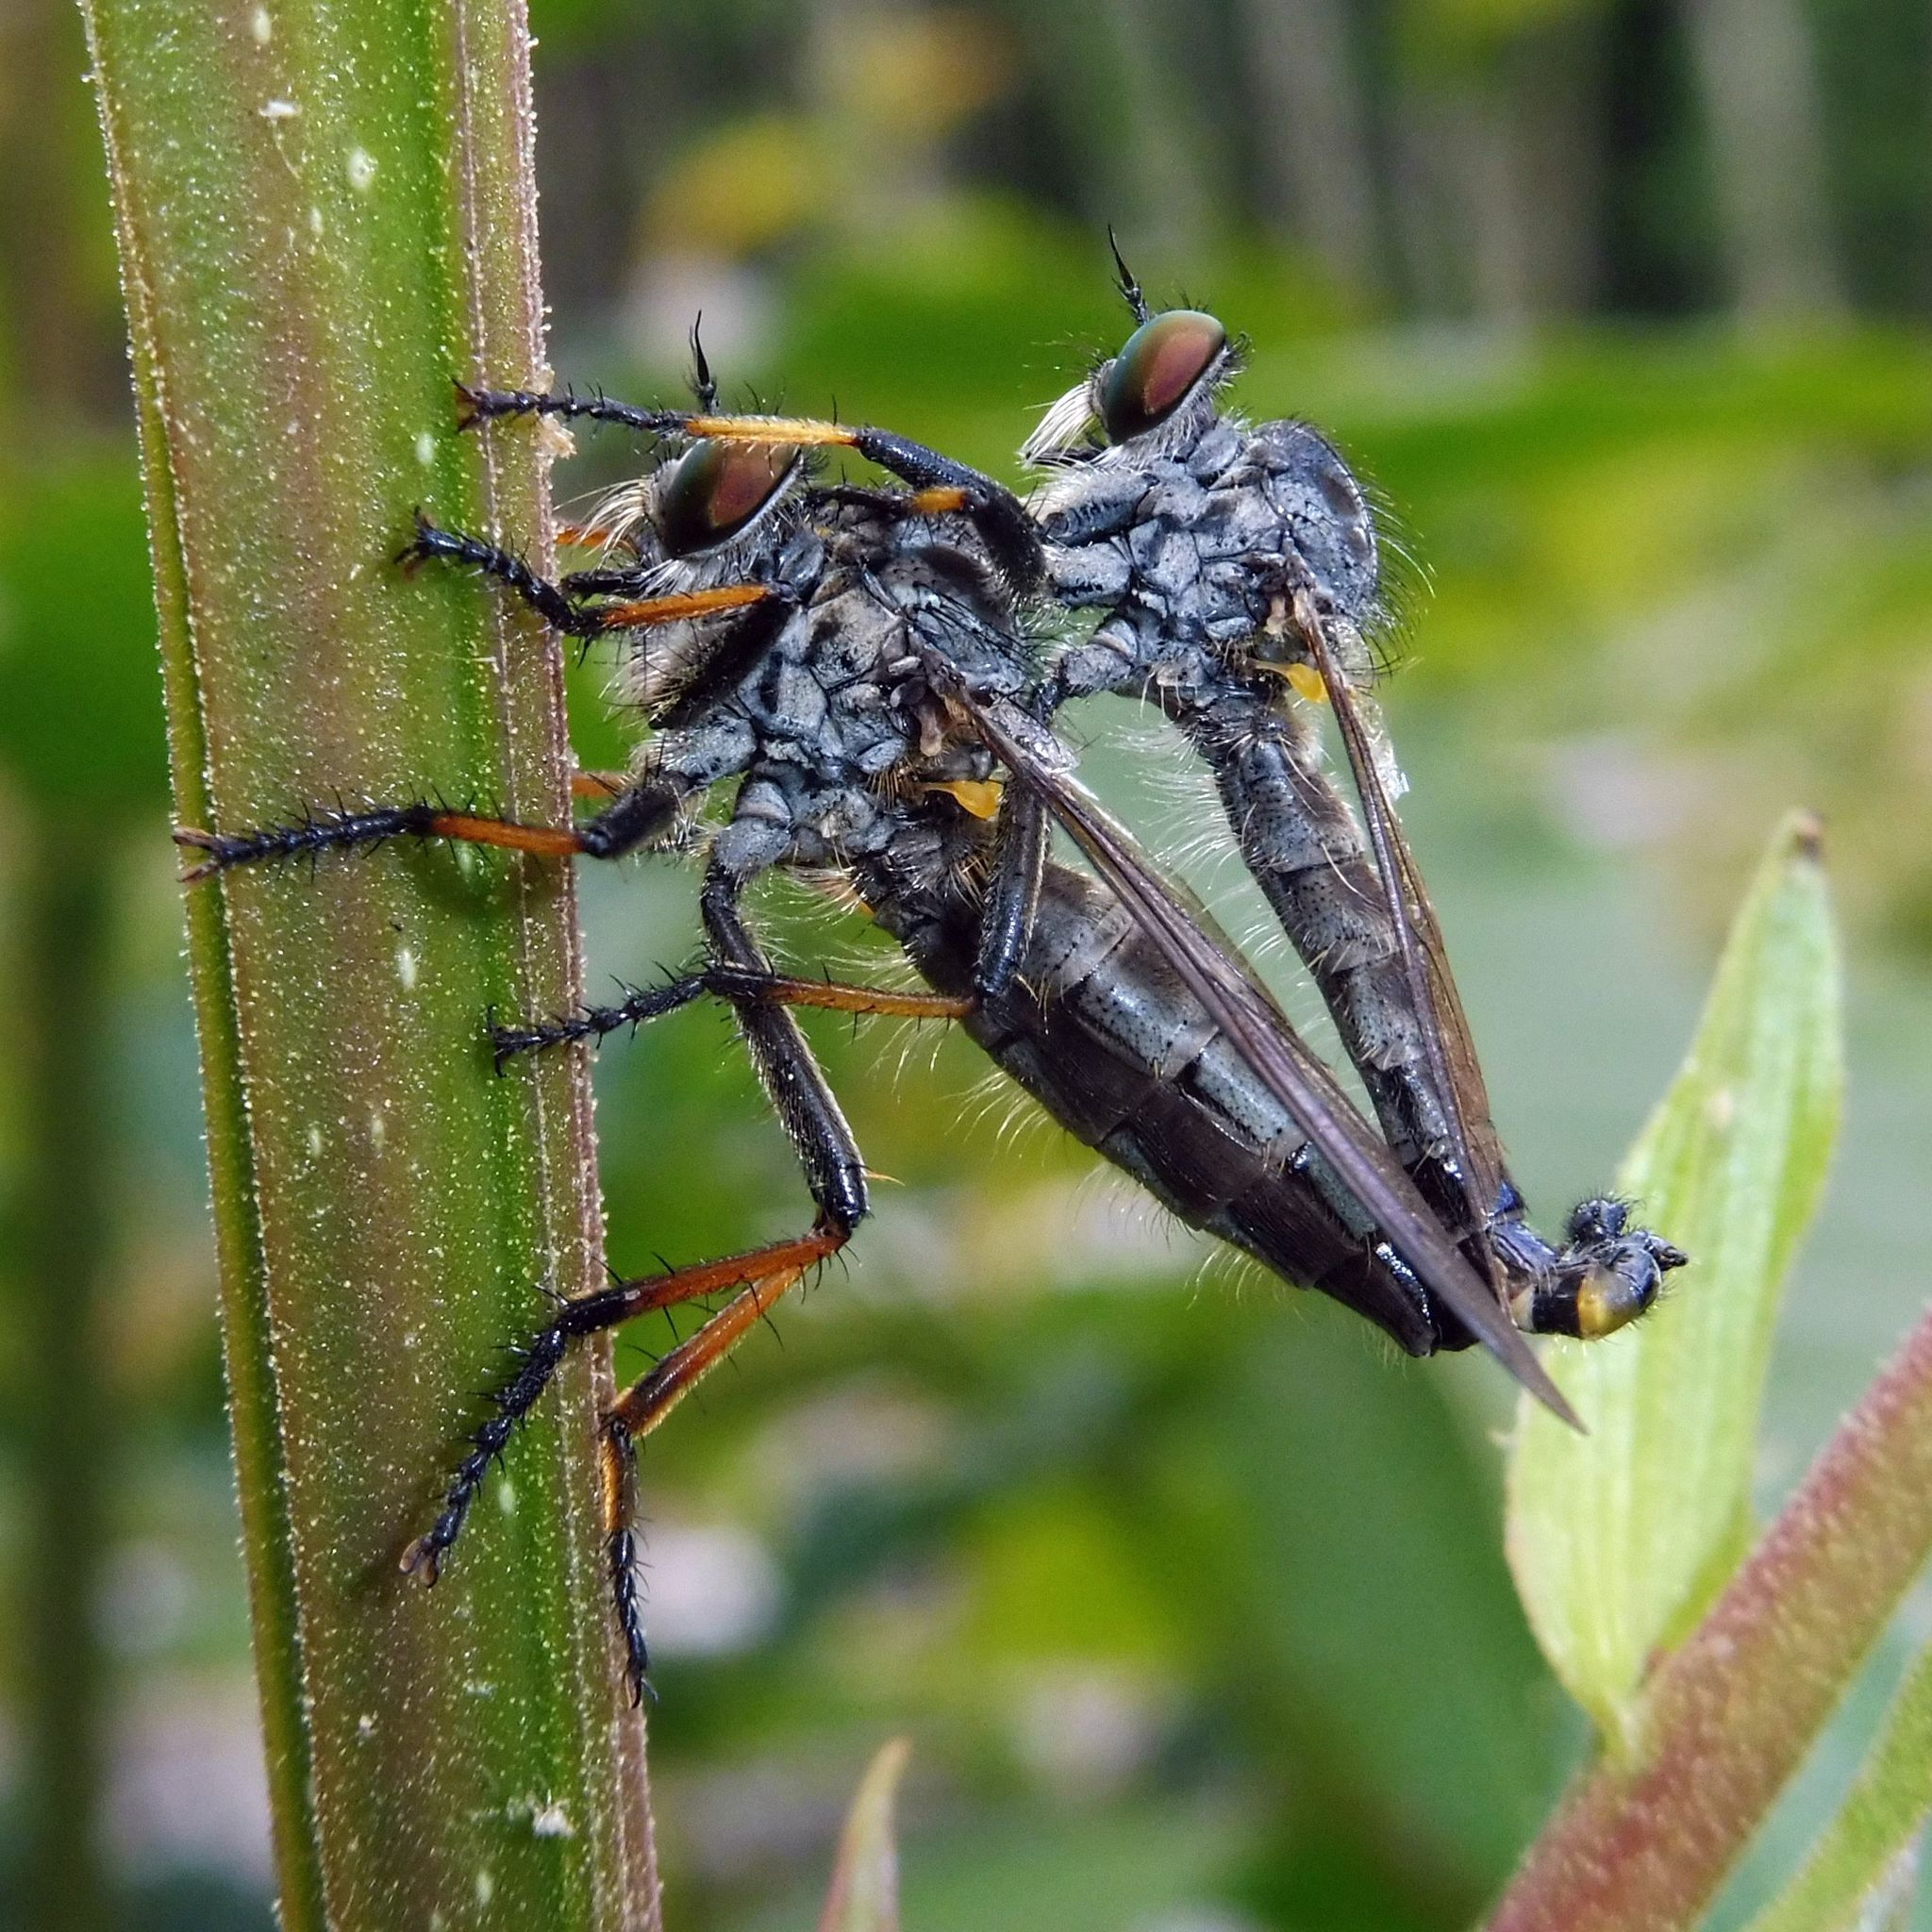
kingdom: Animalia
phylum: Arthropoda
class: Insecta
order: Diptera
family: Asilidae
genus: Neoitamus
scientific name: Neoitamus cyanurus
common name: Common awl robberfly
